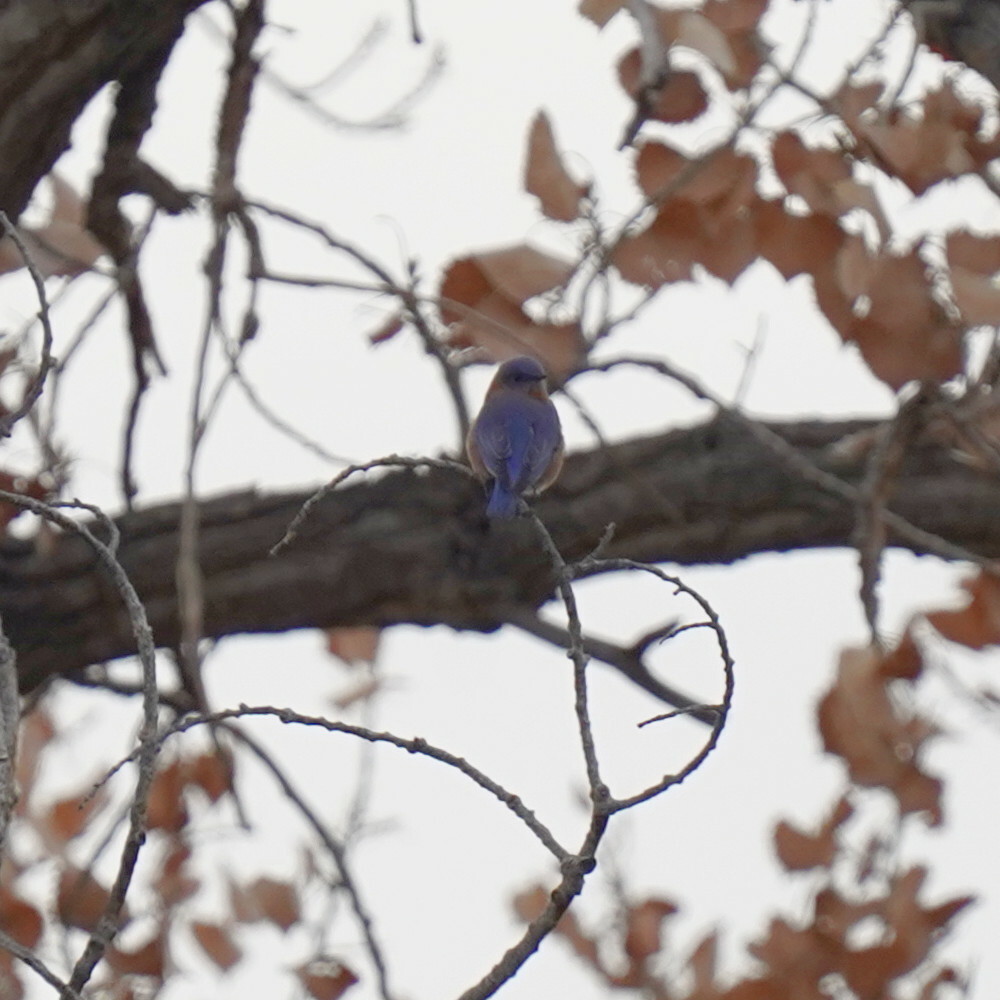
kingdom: Animalia
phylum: Chordata
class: Aves
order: Passeriformes
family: Turdidae
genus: Sialia
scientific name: Sialia sialis
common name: Eastern bluebird
